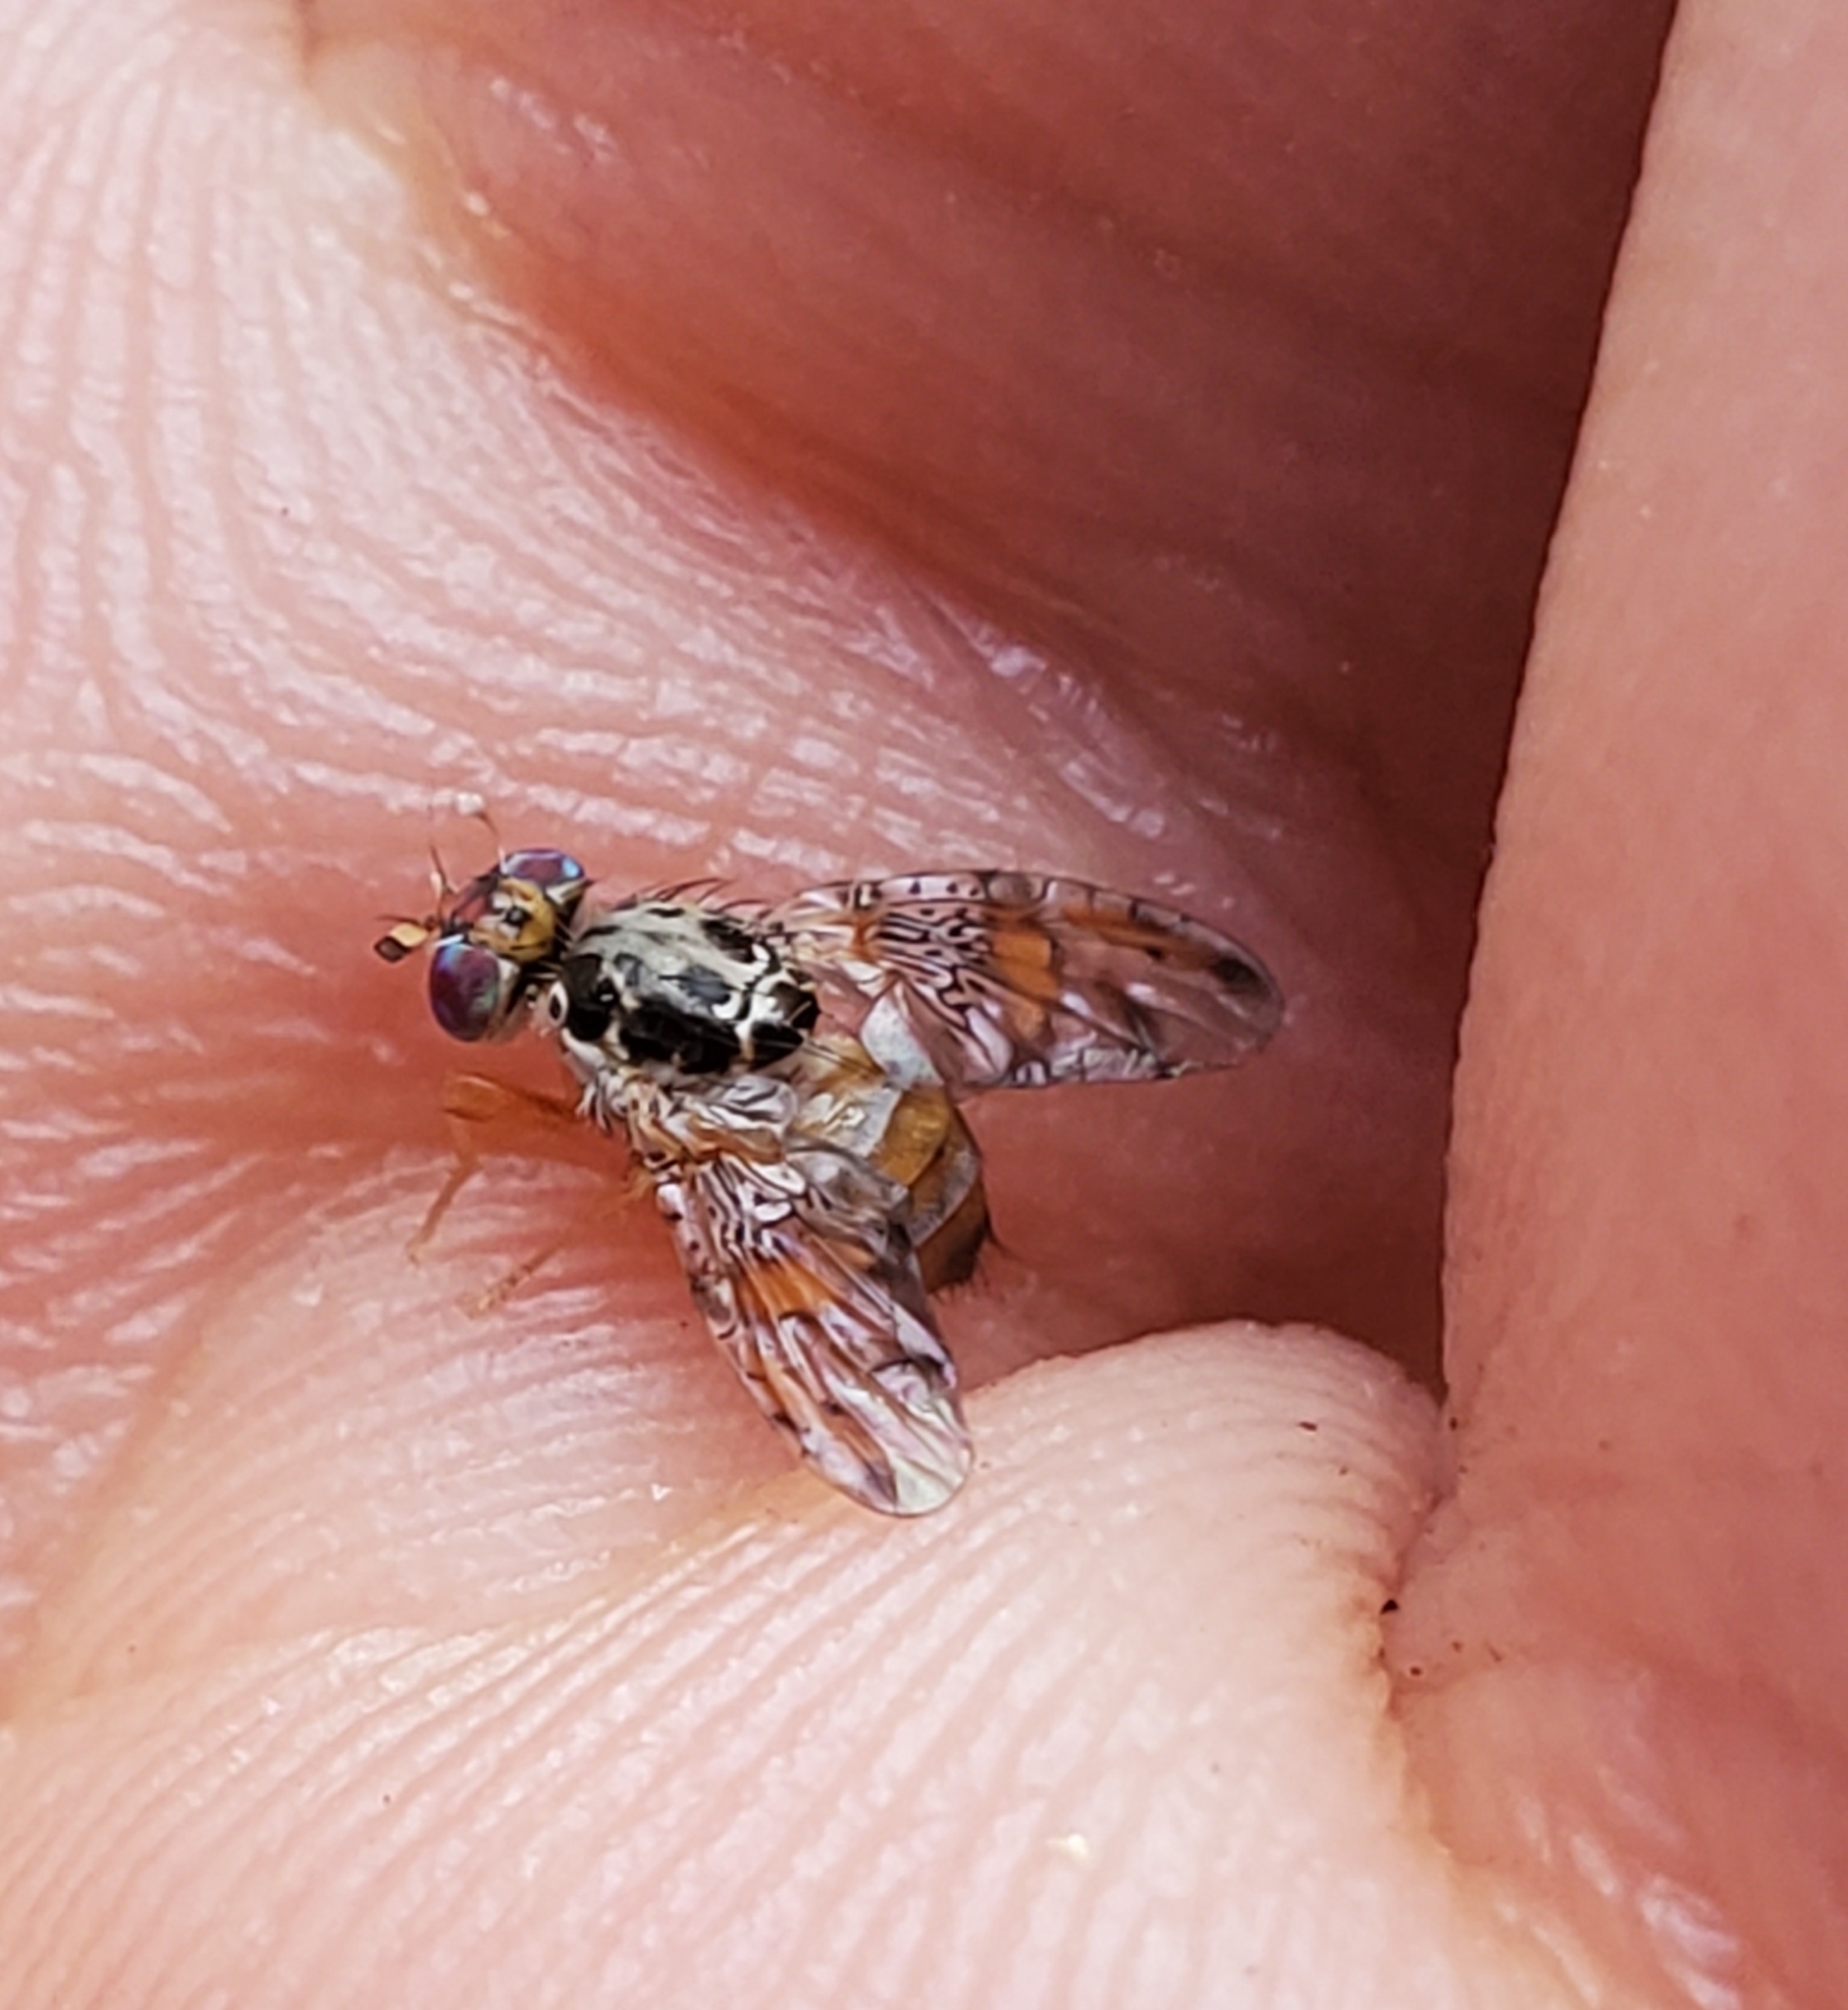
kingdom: Animalia
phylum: Arthropoda
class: Insecta
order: Diptera
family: Tephritidae
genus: Ceratitis
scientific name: Ceratitis capitata
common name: Mediterranean fruit fly
